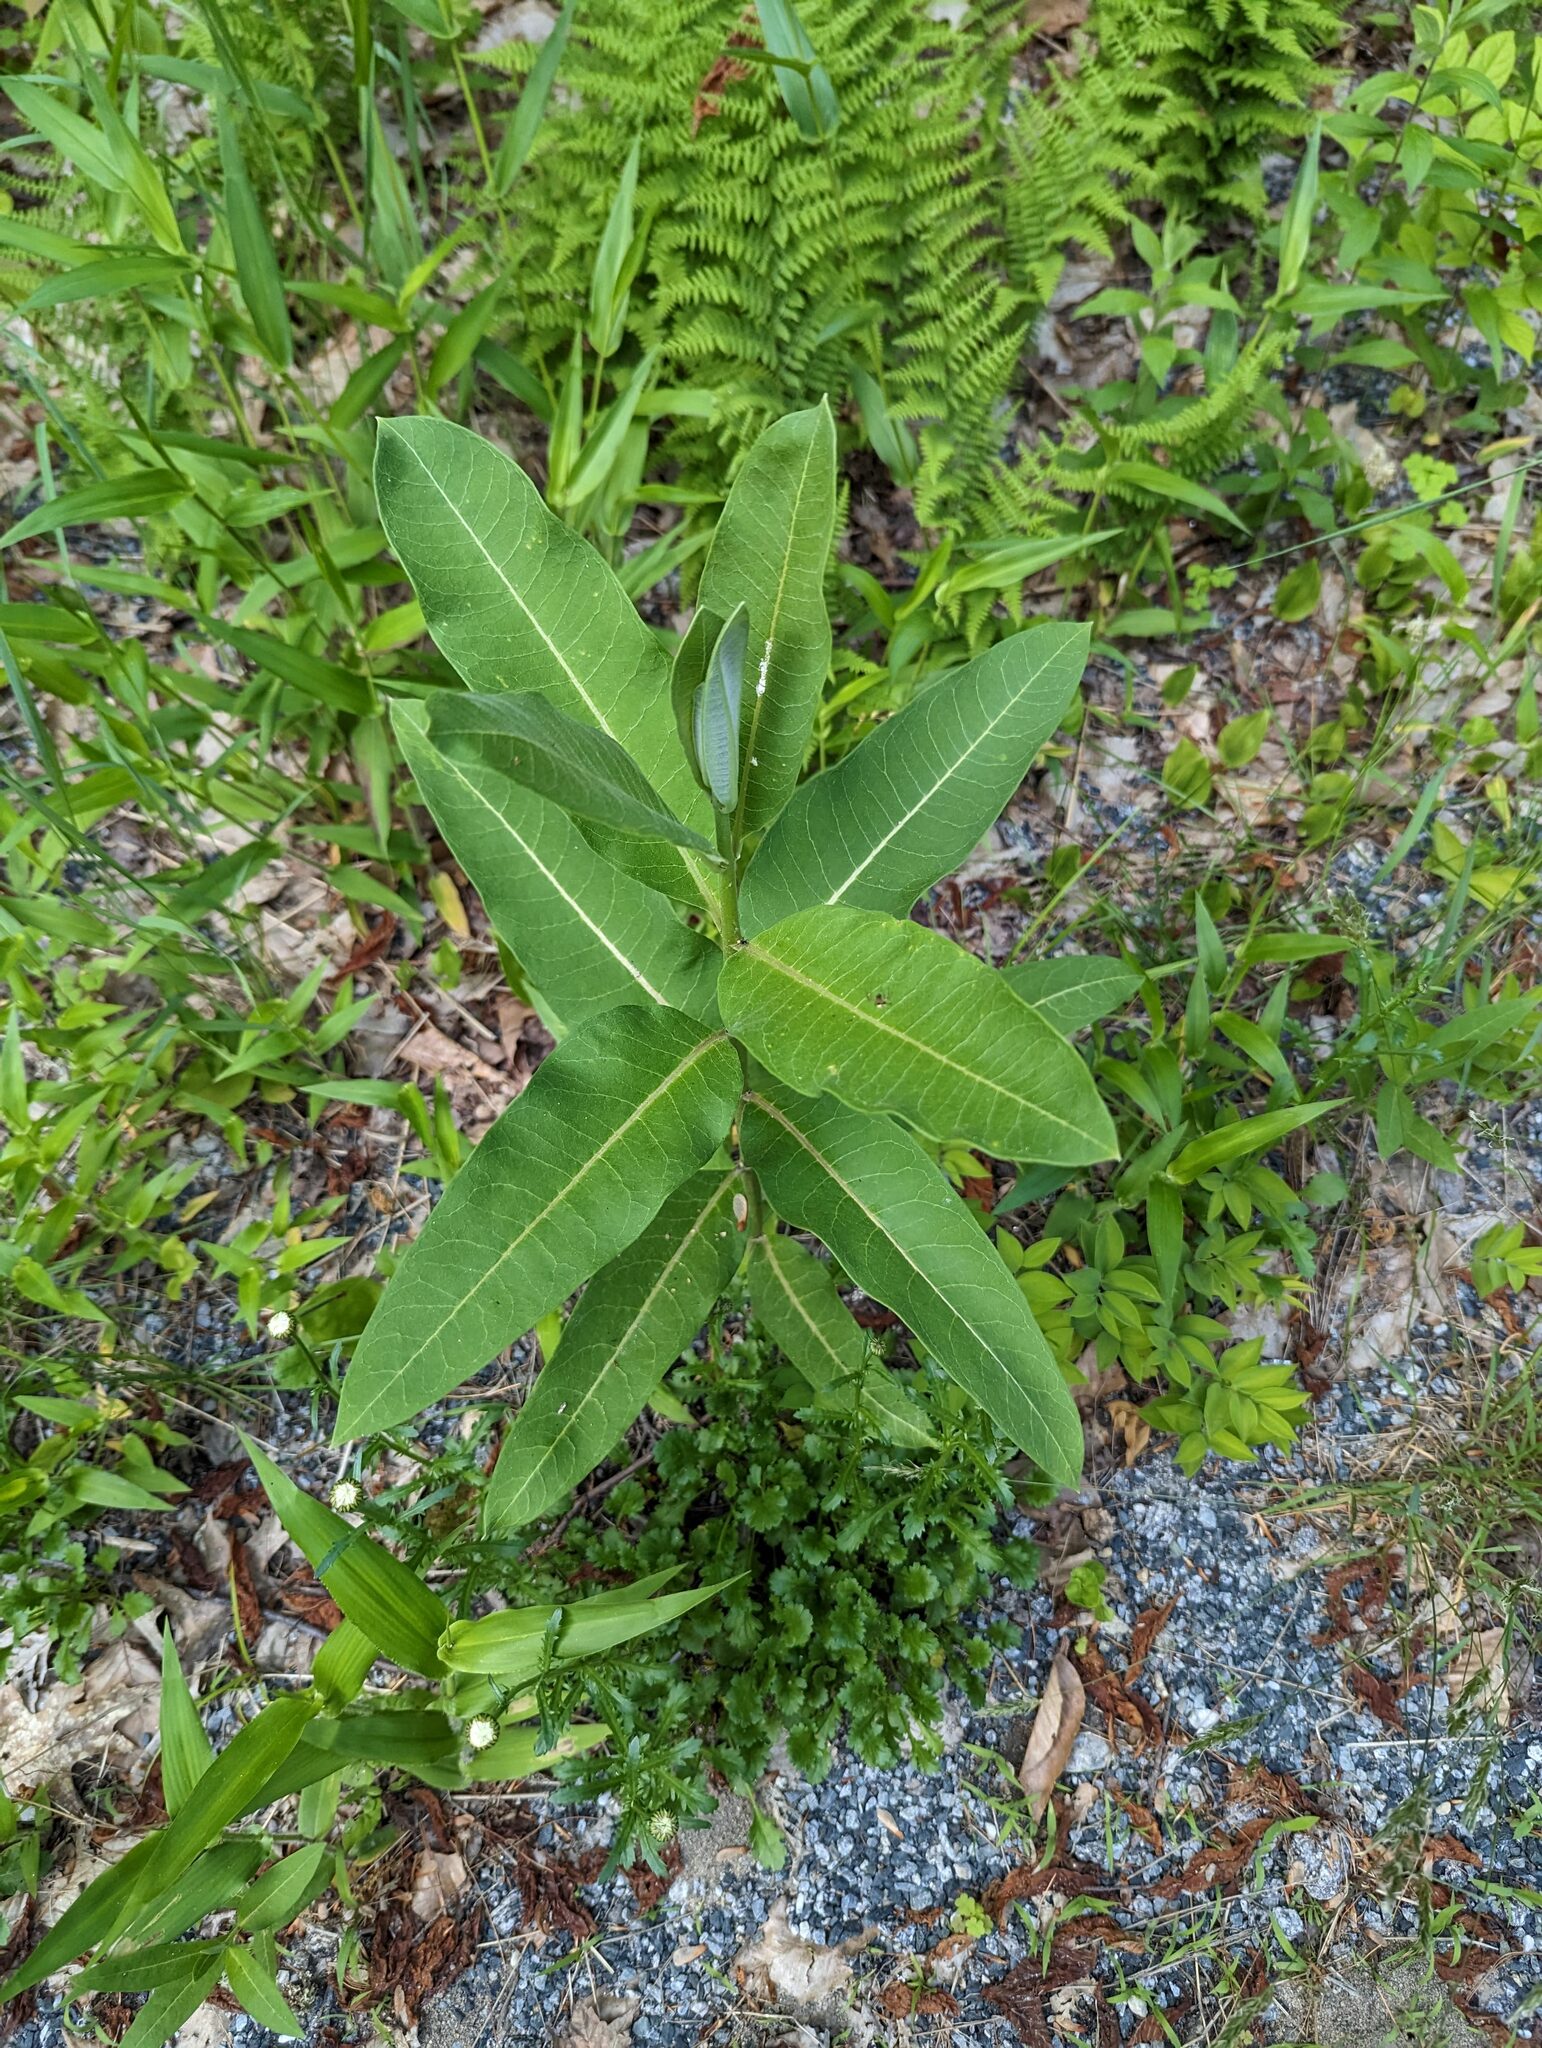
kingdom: Plantae
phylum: Tracheophyta
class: Magnoliopsida
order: Gentianales
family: Apocynaceae
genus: Asclepias
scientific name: Asclepias syriaca
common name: Common milkweed
